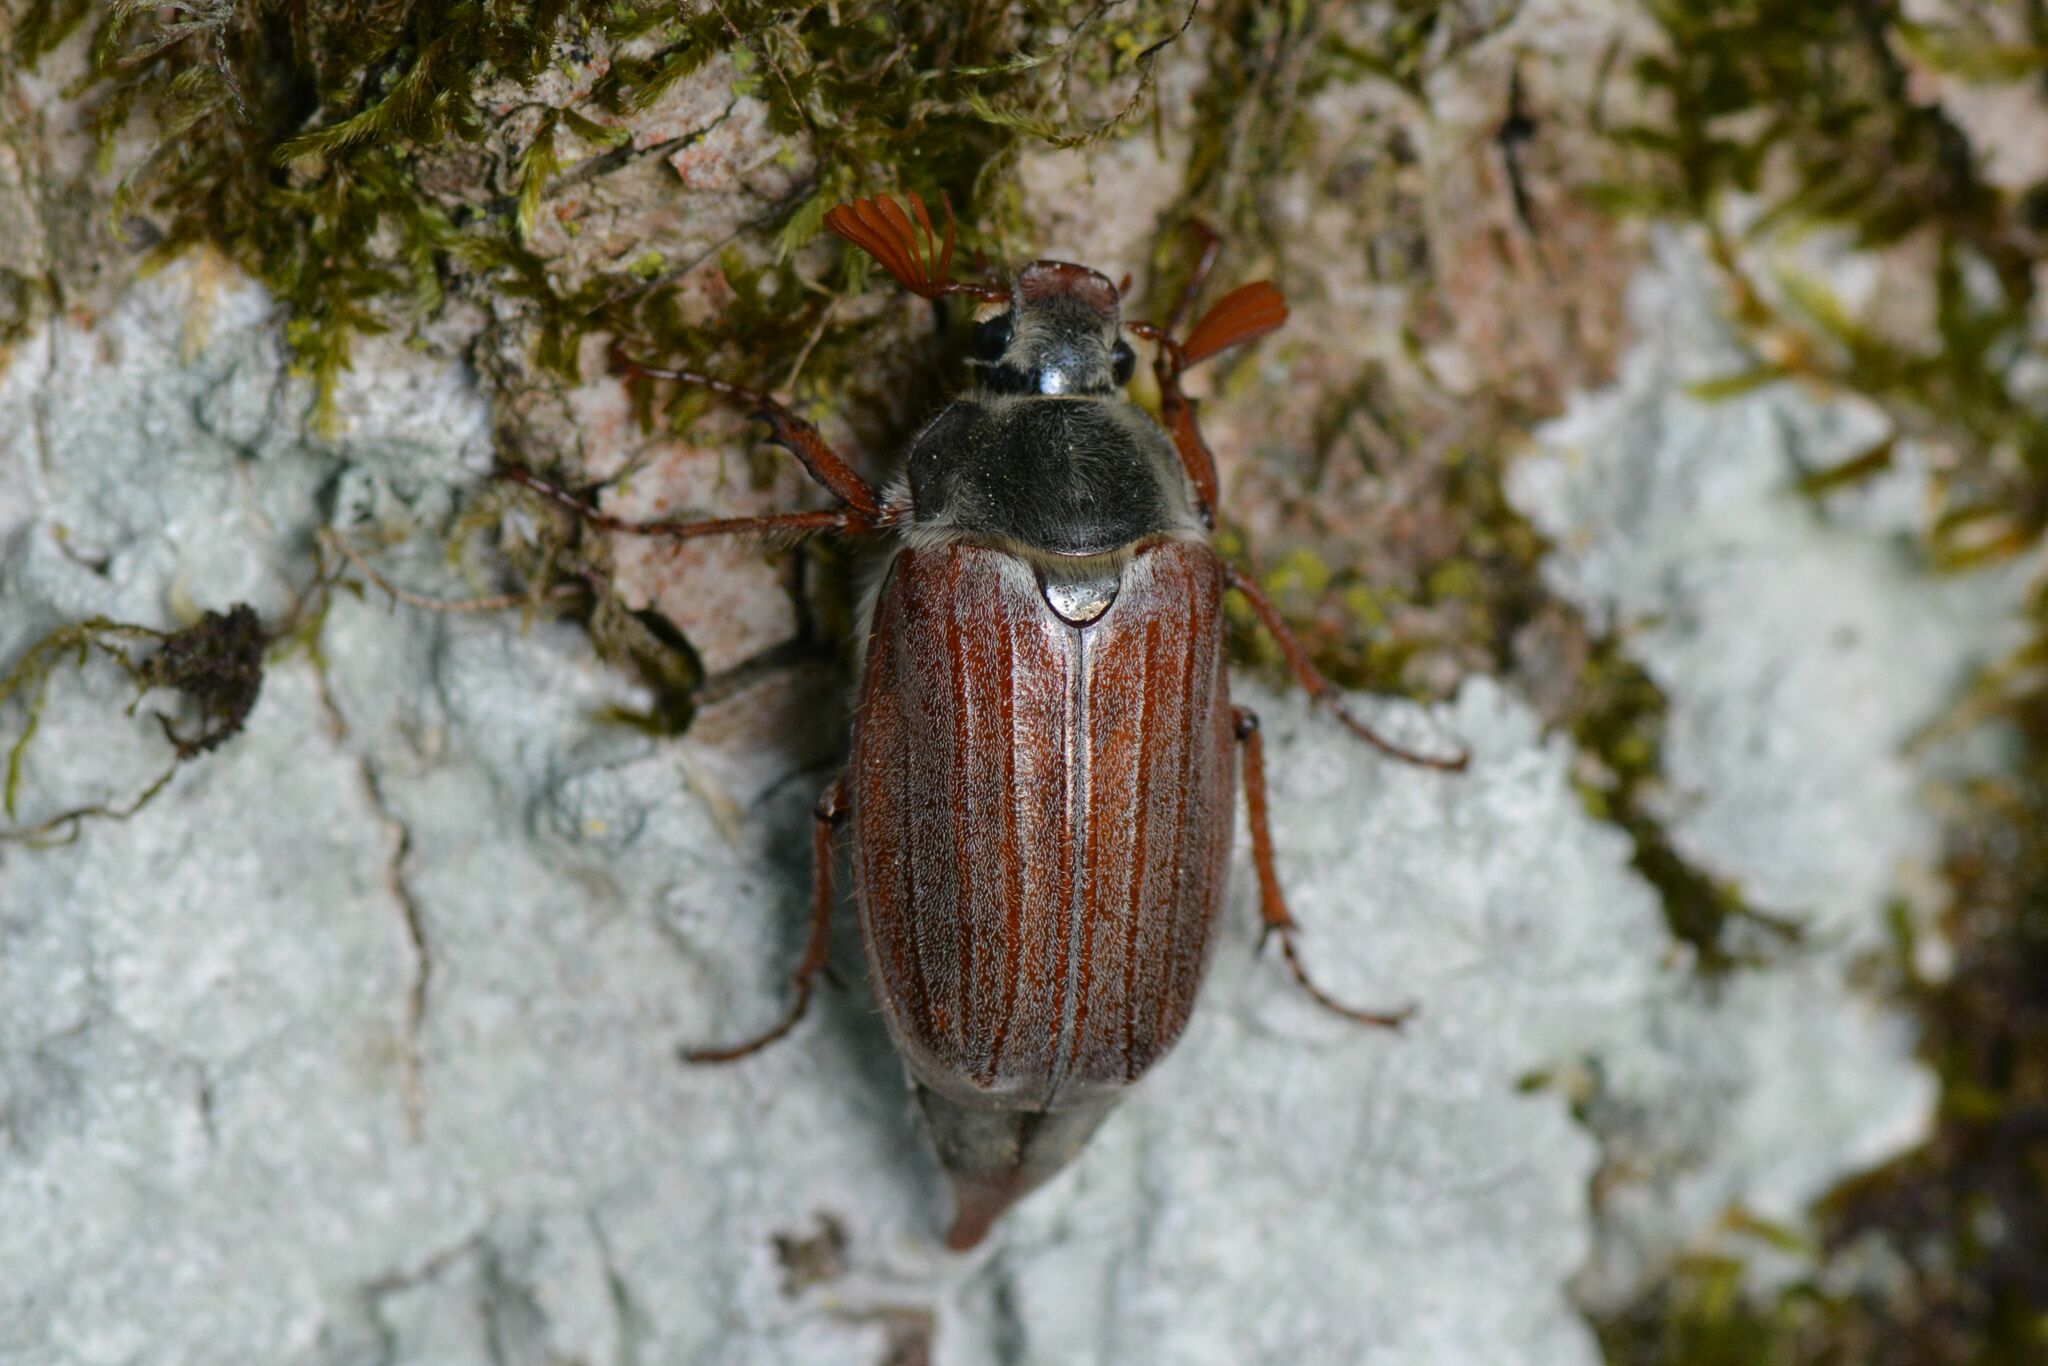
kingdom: Animalia
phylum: Arthropoda
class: Insecta
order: Coleoptera
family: Scarabaeidae
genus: Melolontha
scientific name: Melolontha melolontha
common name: Cockchafer maybeetle
